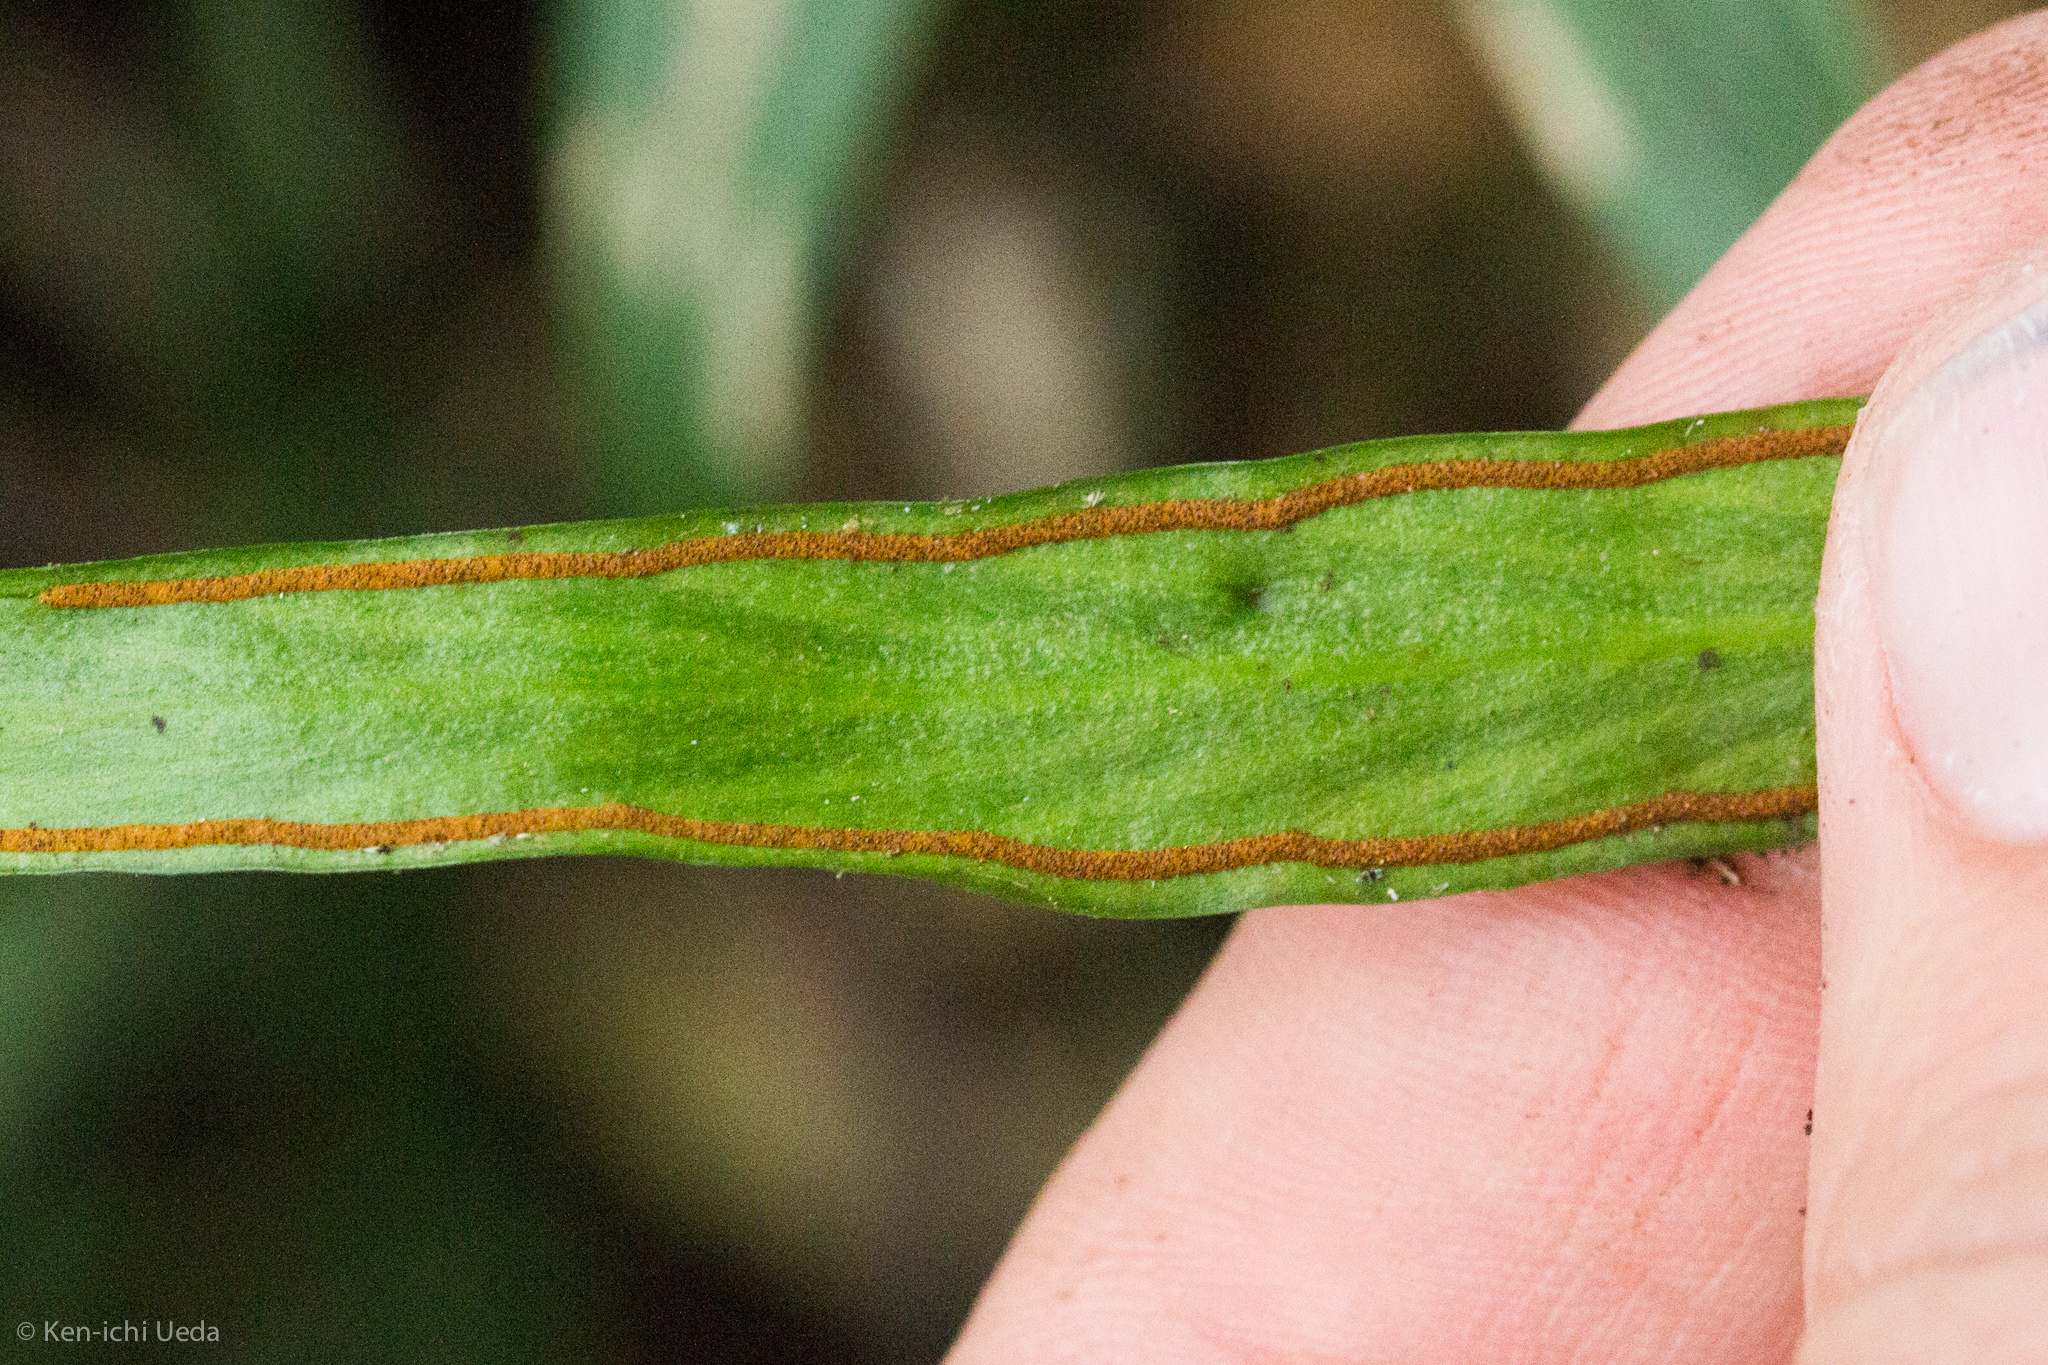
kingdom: Plantae
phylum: Tracheophyta
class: Polypodiopsida
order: Polypodiales
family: Pteridaceae
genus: Ananthacorus
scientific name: Ananthacorus angustifolius
